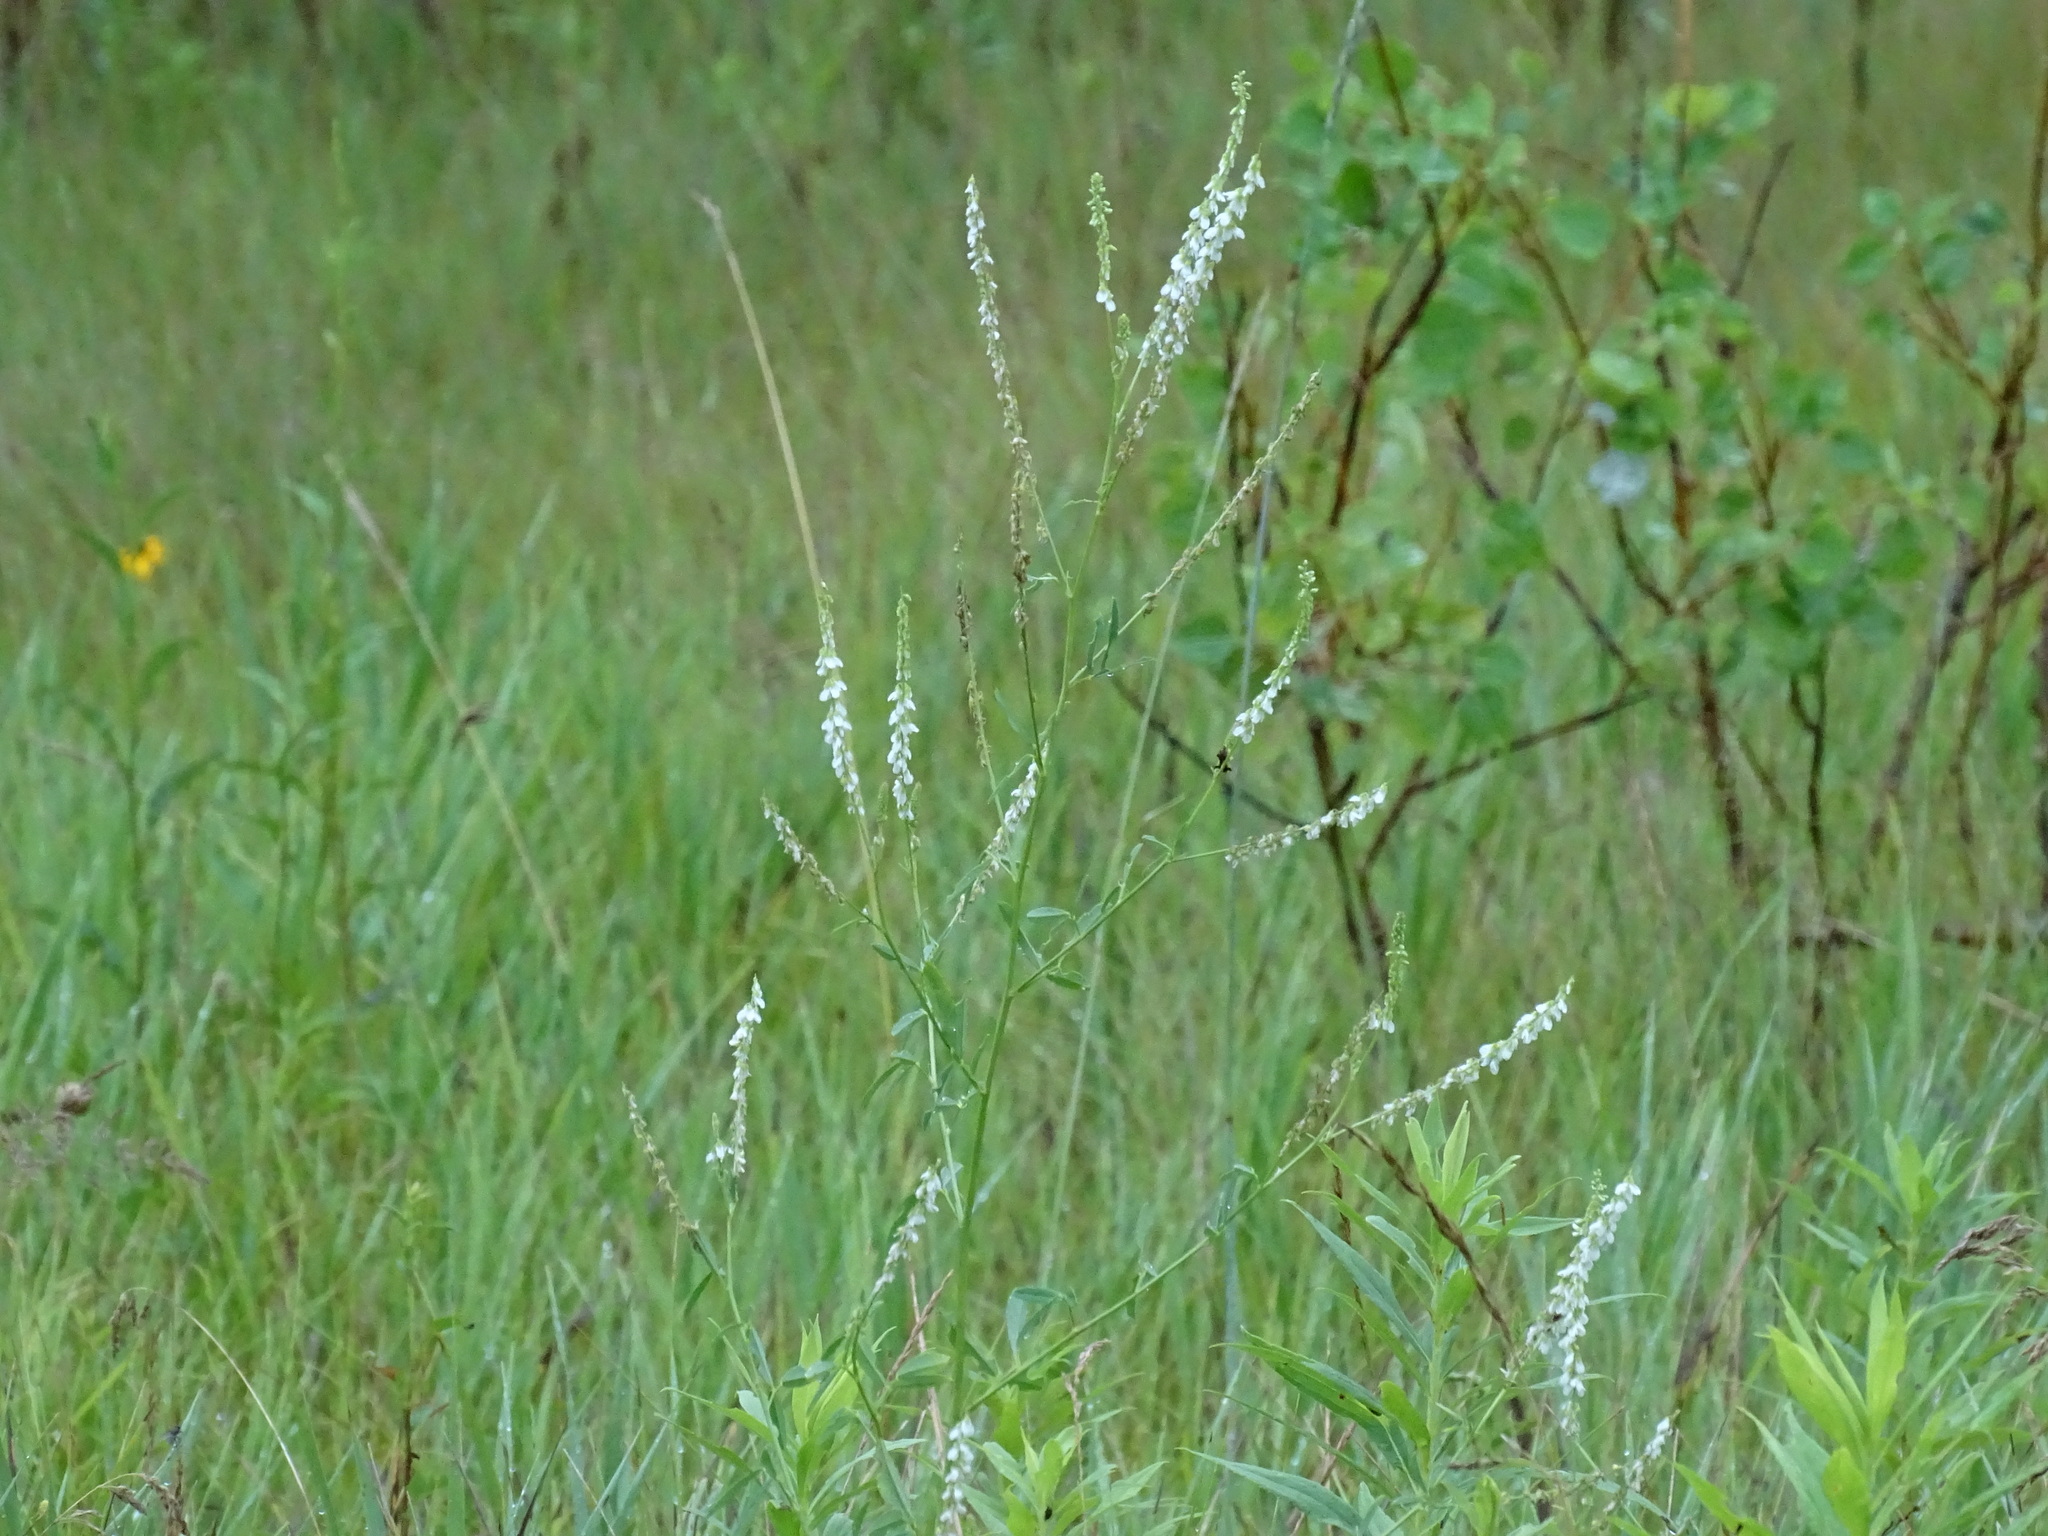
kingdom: Plantae
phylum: Tracheophyta
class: Magnoliopsida
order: Fabales
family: Fabaceae
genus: Melilotus
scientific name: Melilotus albus
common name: White melilot
